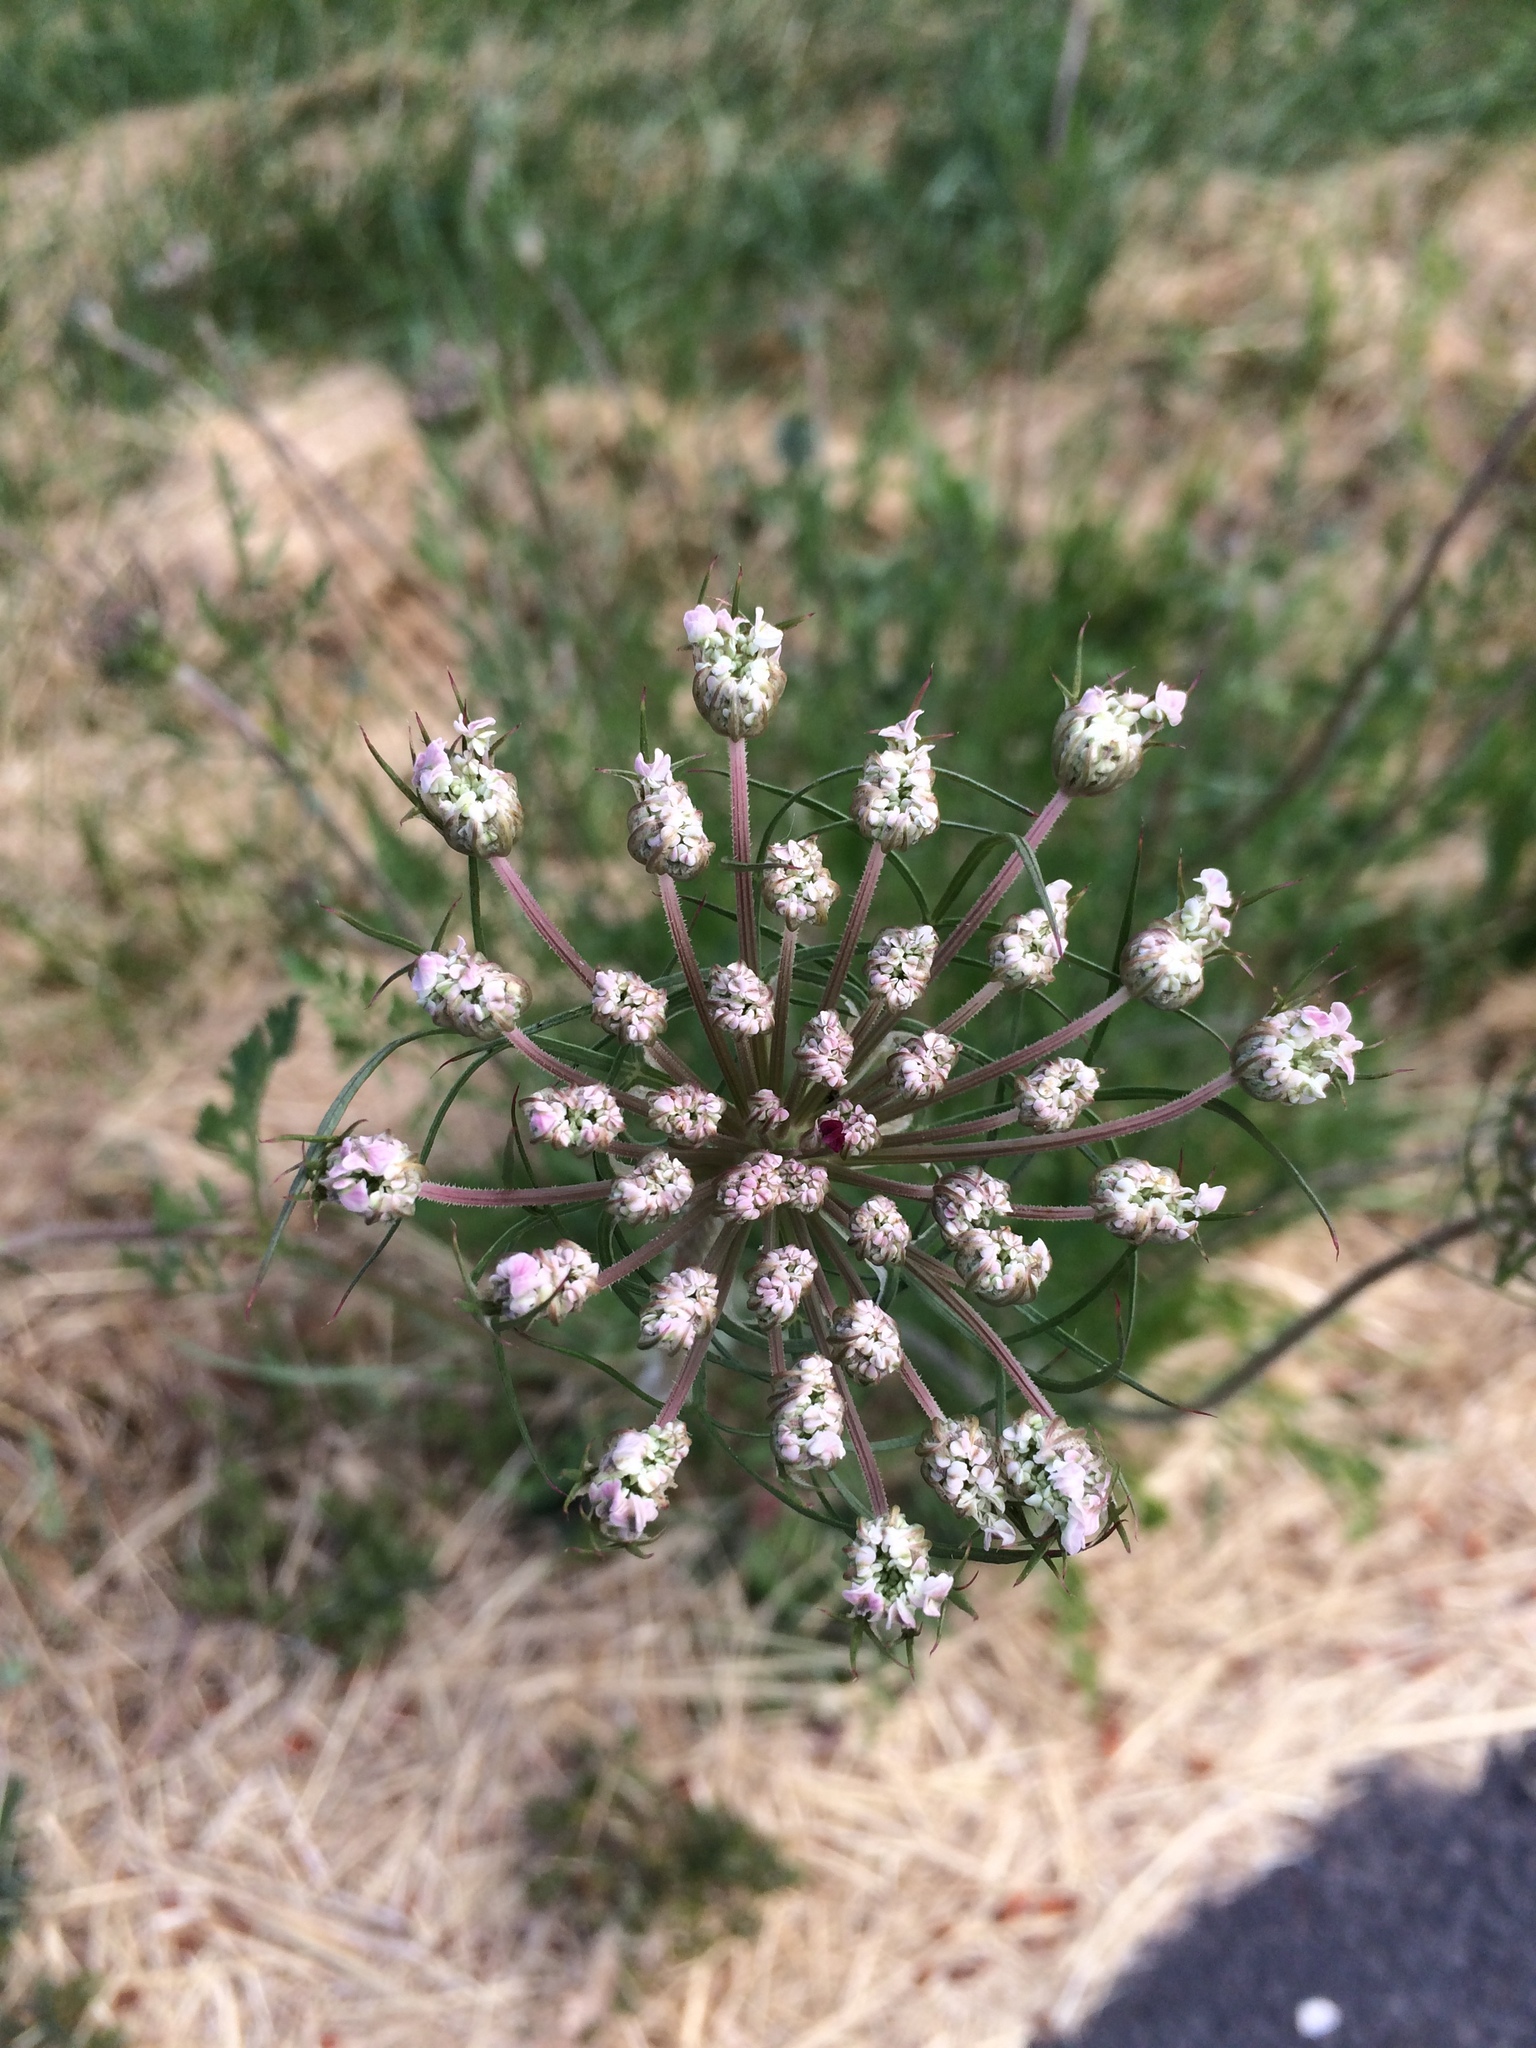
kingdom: Plantae
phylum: Tracheophyta
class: Magnoliopsida
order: Apiales
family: Apiaceae
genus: Daucus
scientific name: Daucus carota
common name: Wild carrot
